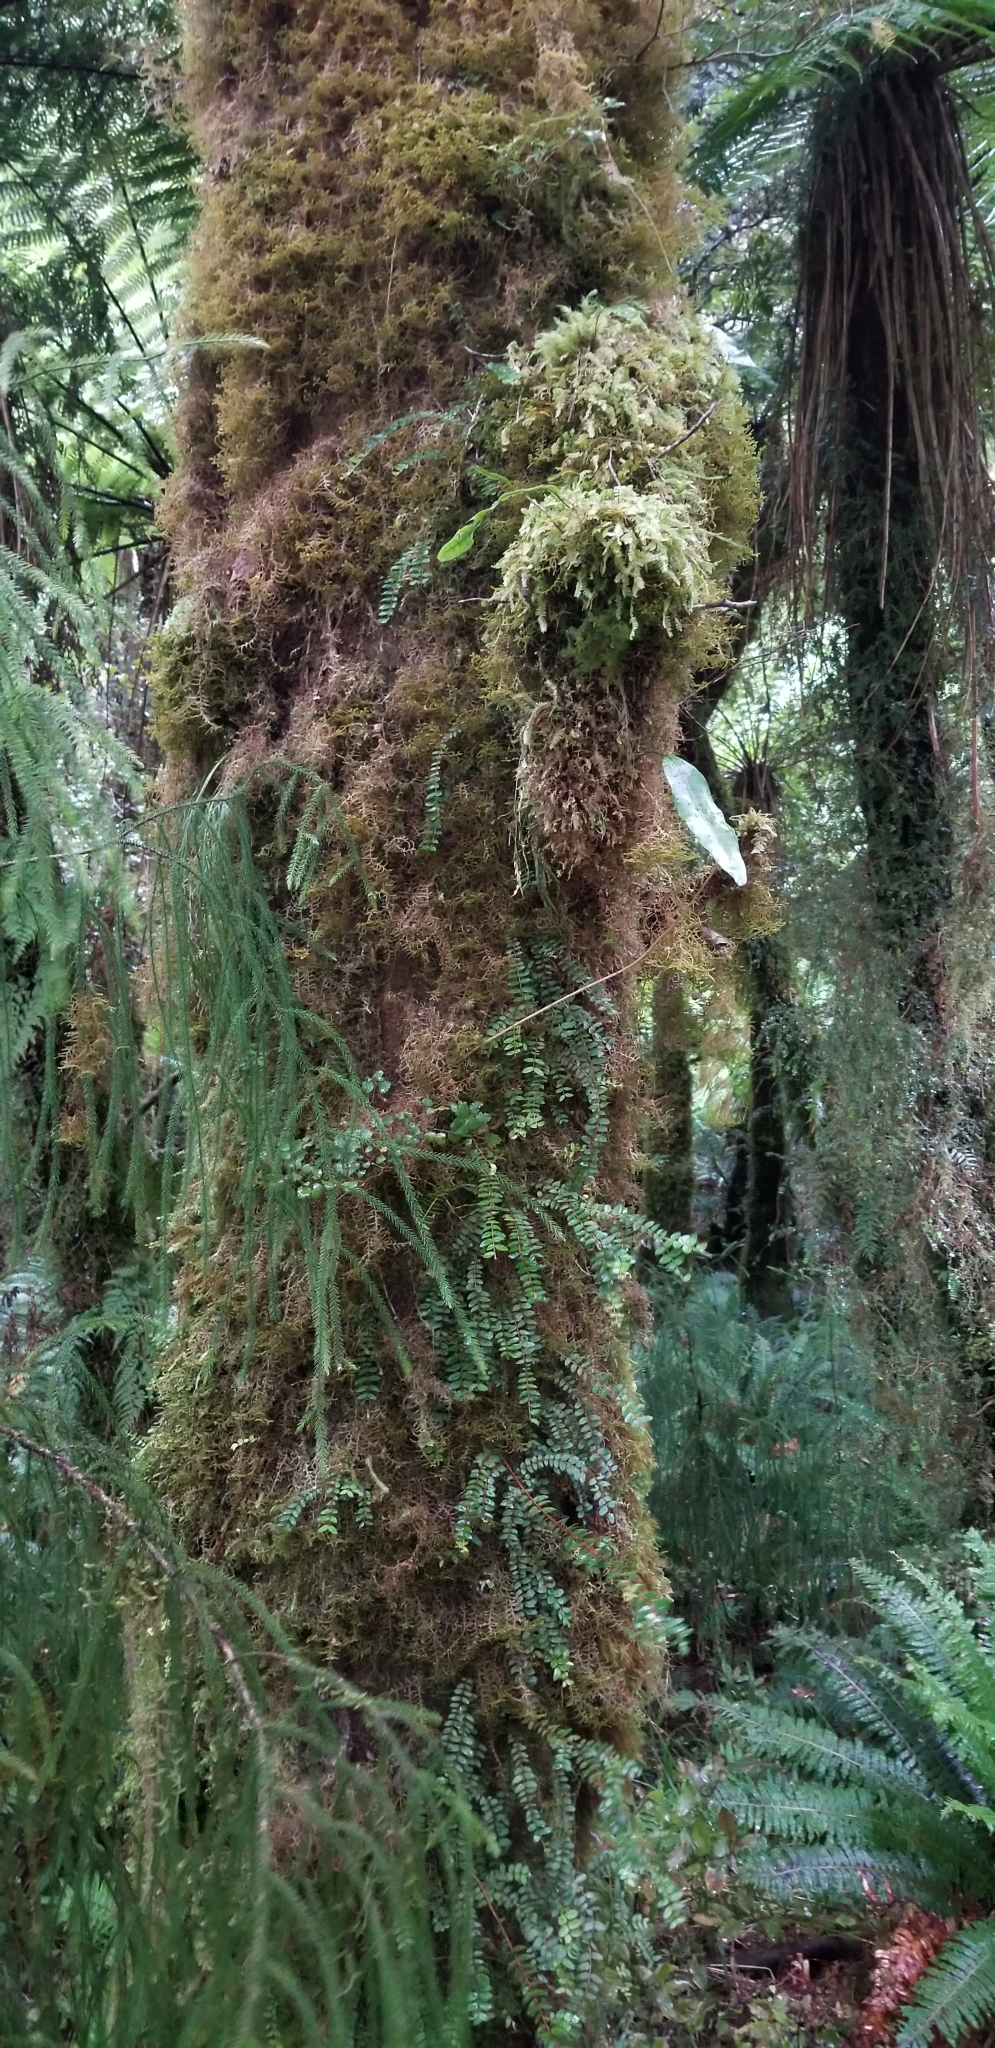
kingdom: Plantae
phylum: Tracheophyta
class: Polypodiopsida
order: Polypodiales
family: Polypodiaceae
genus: Lecanopteris
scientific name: Lecanopteris pustulata
